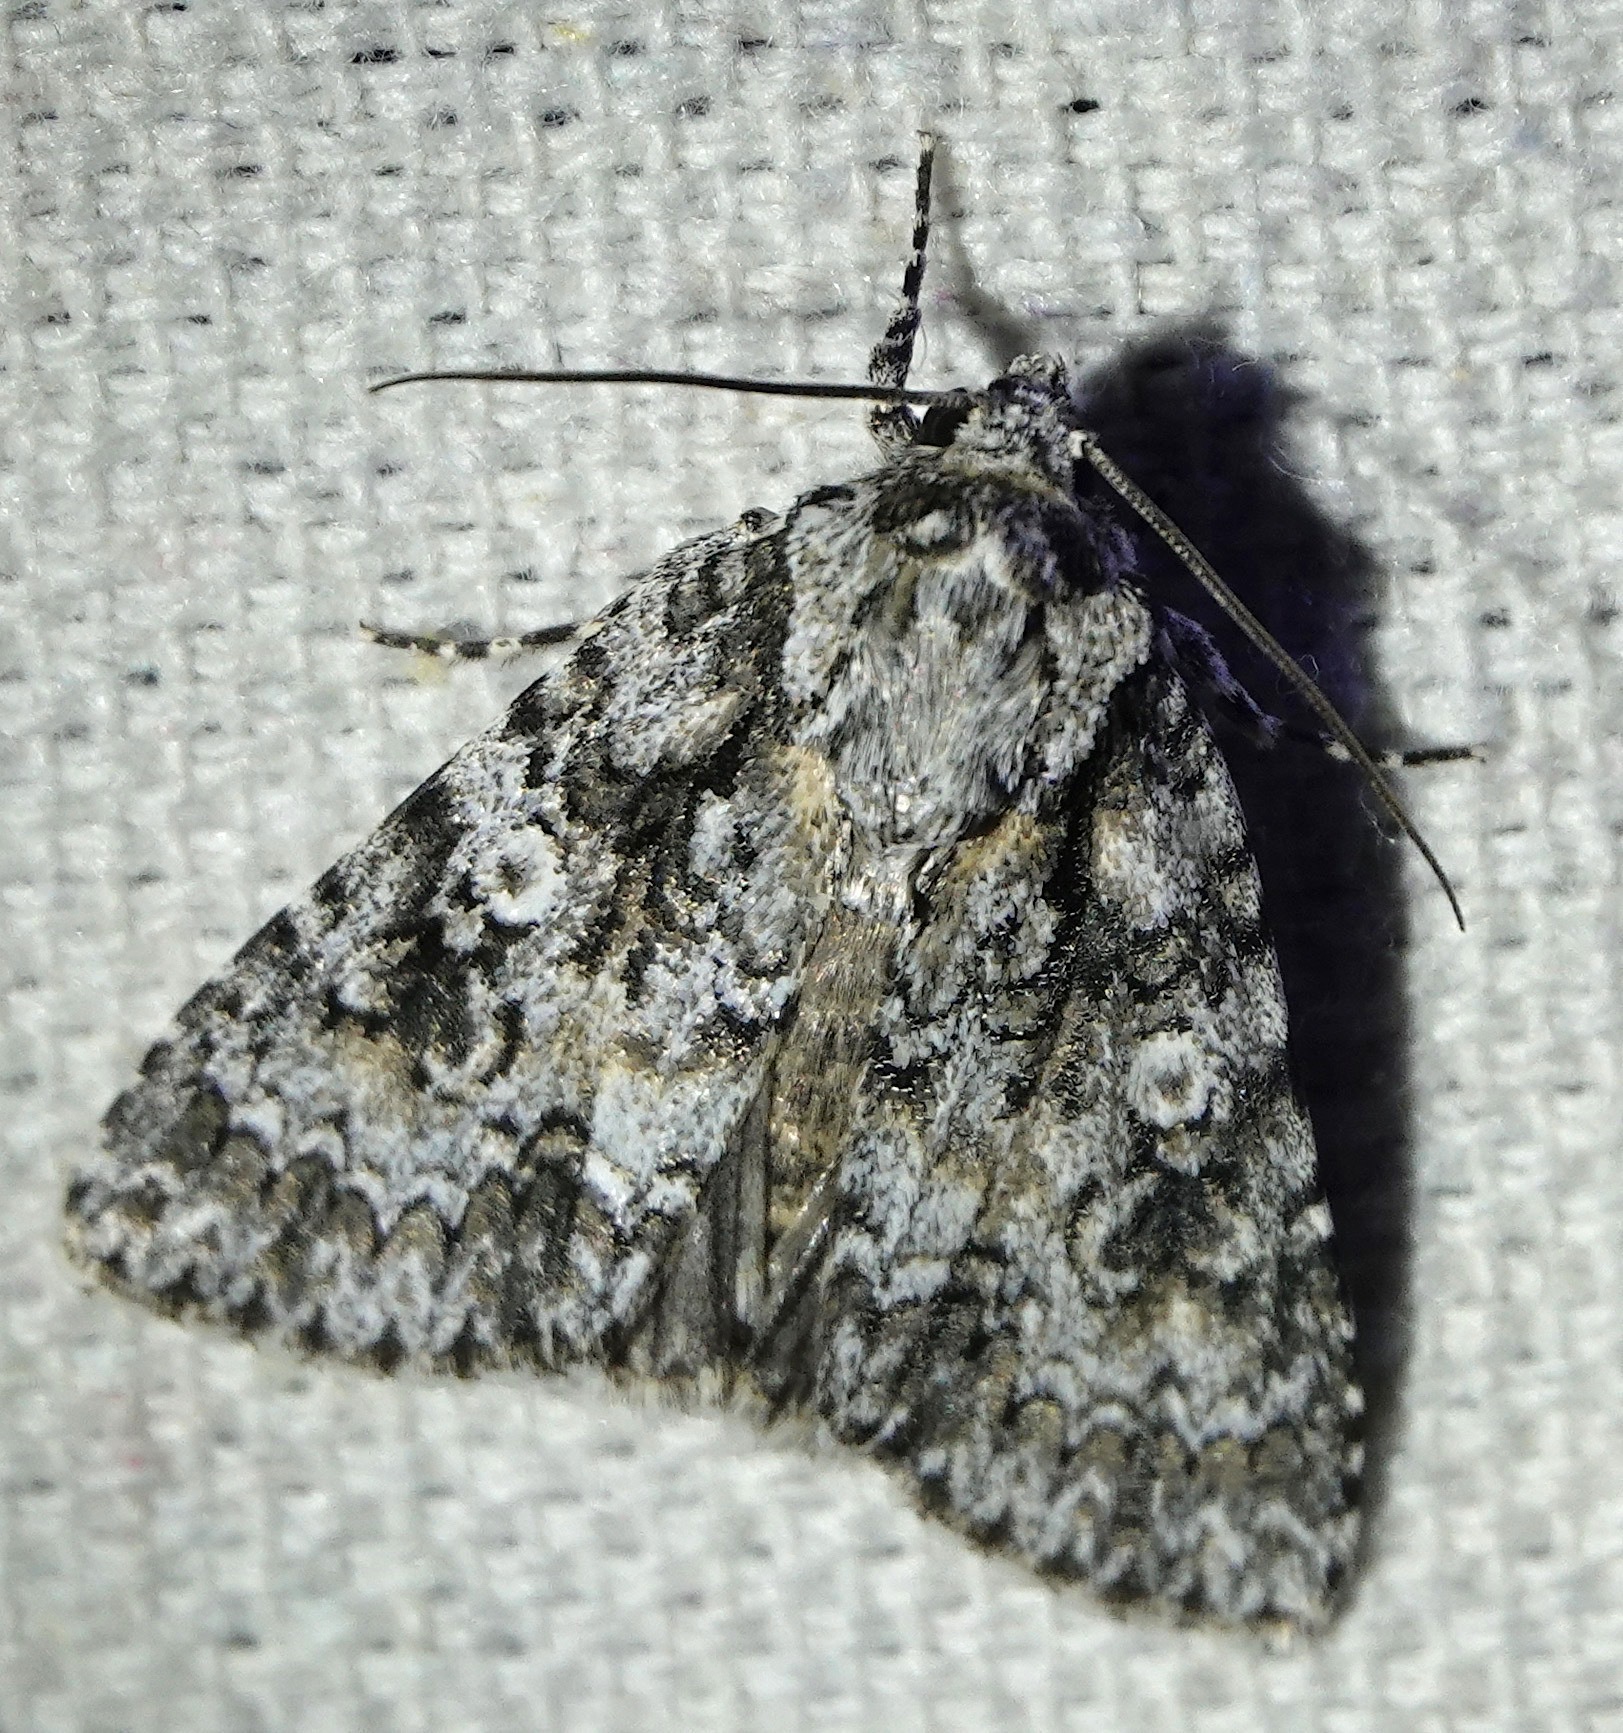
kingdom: Animalia
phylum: Arthropoda
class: Insecta
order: Lepidoptera
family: Noctuidae
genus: Acronicta
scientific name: Acronicta marmorata
